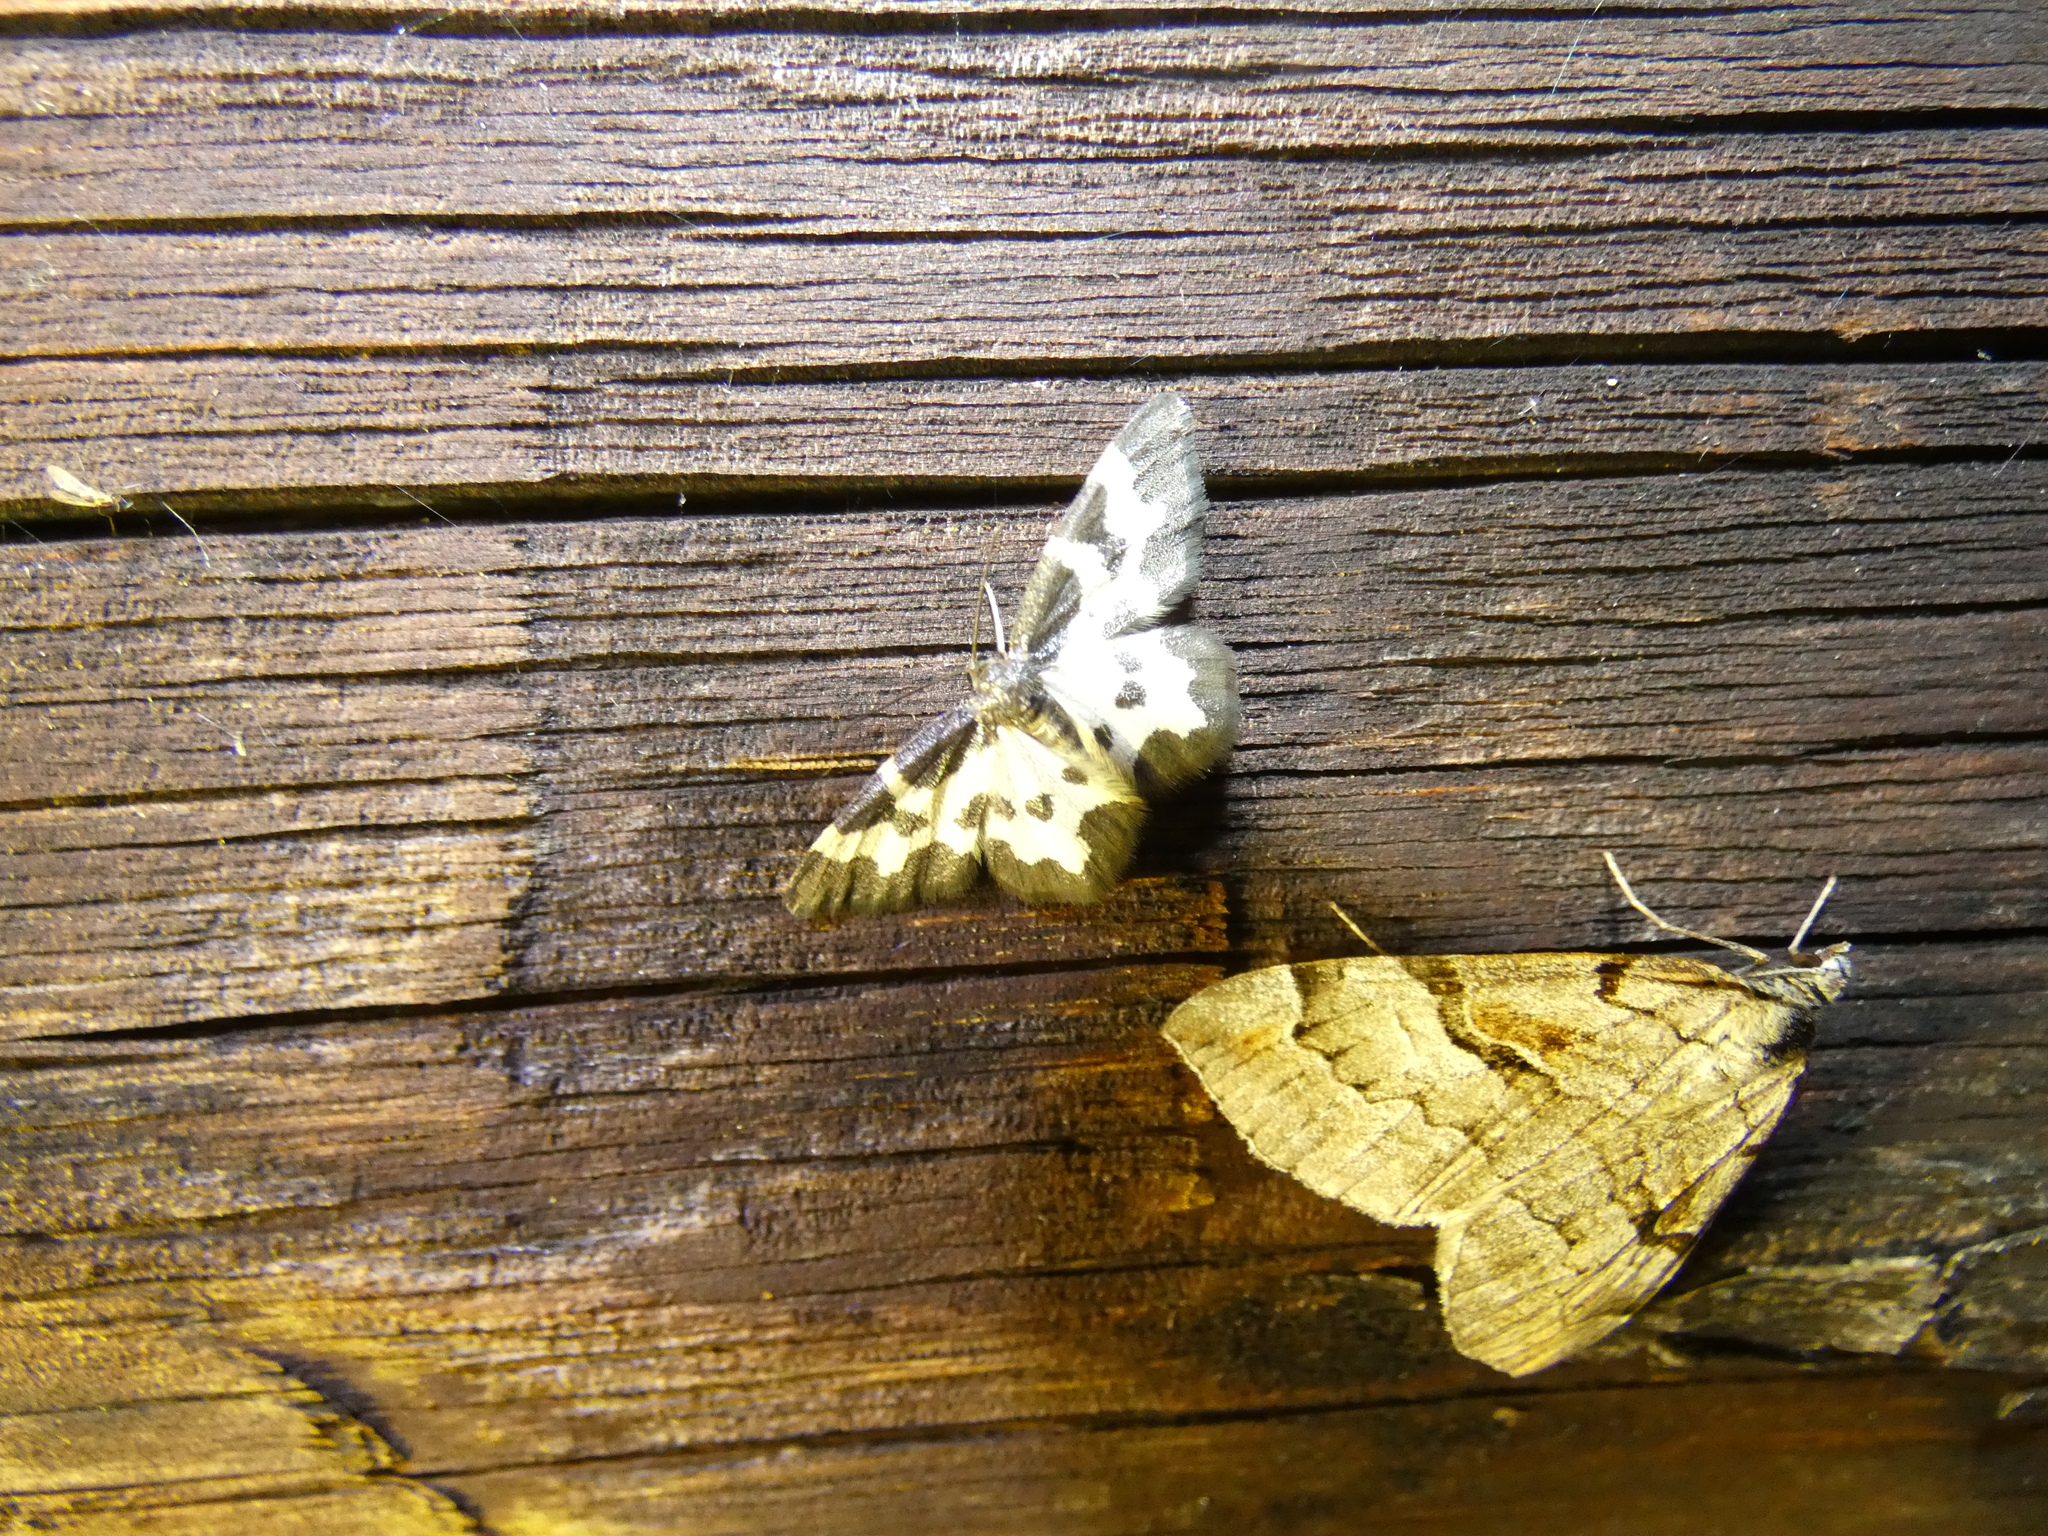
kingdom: Animalia
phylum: Arthropoda
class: Insecta
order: Lepidoptera
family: Geometridae
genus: Lomaspilis
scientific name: Lomaspilis marginata
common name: Clouded border
